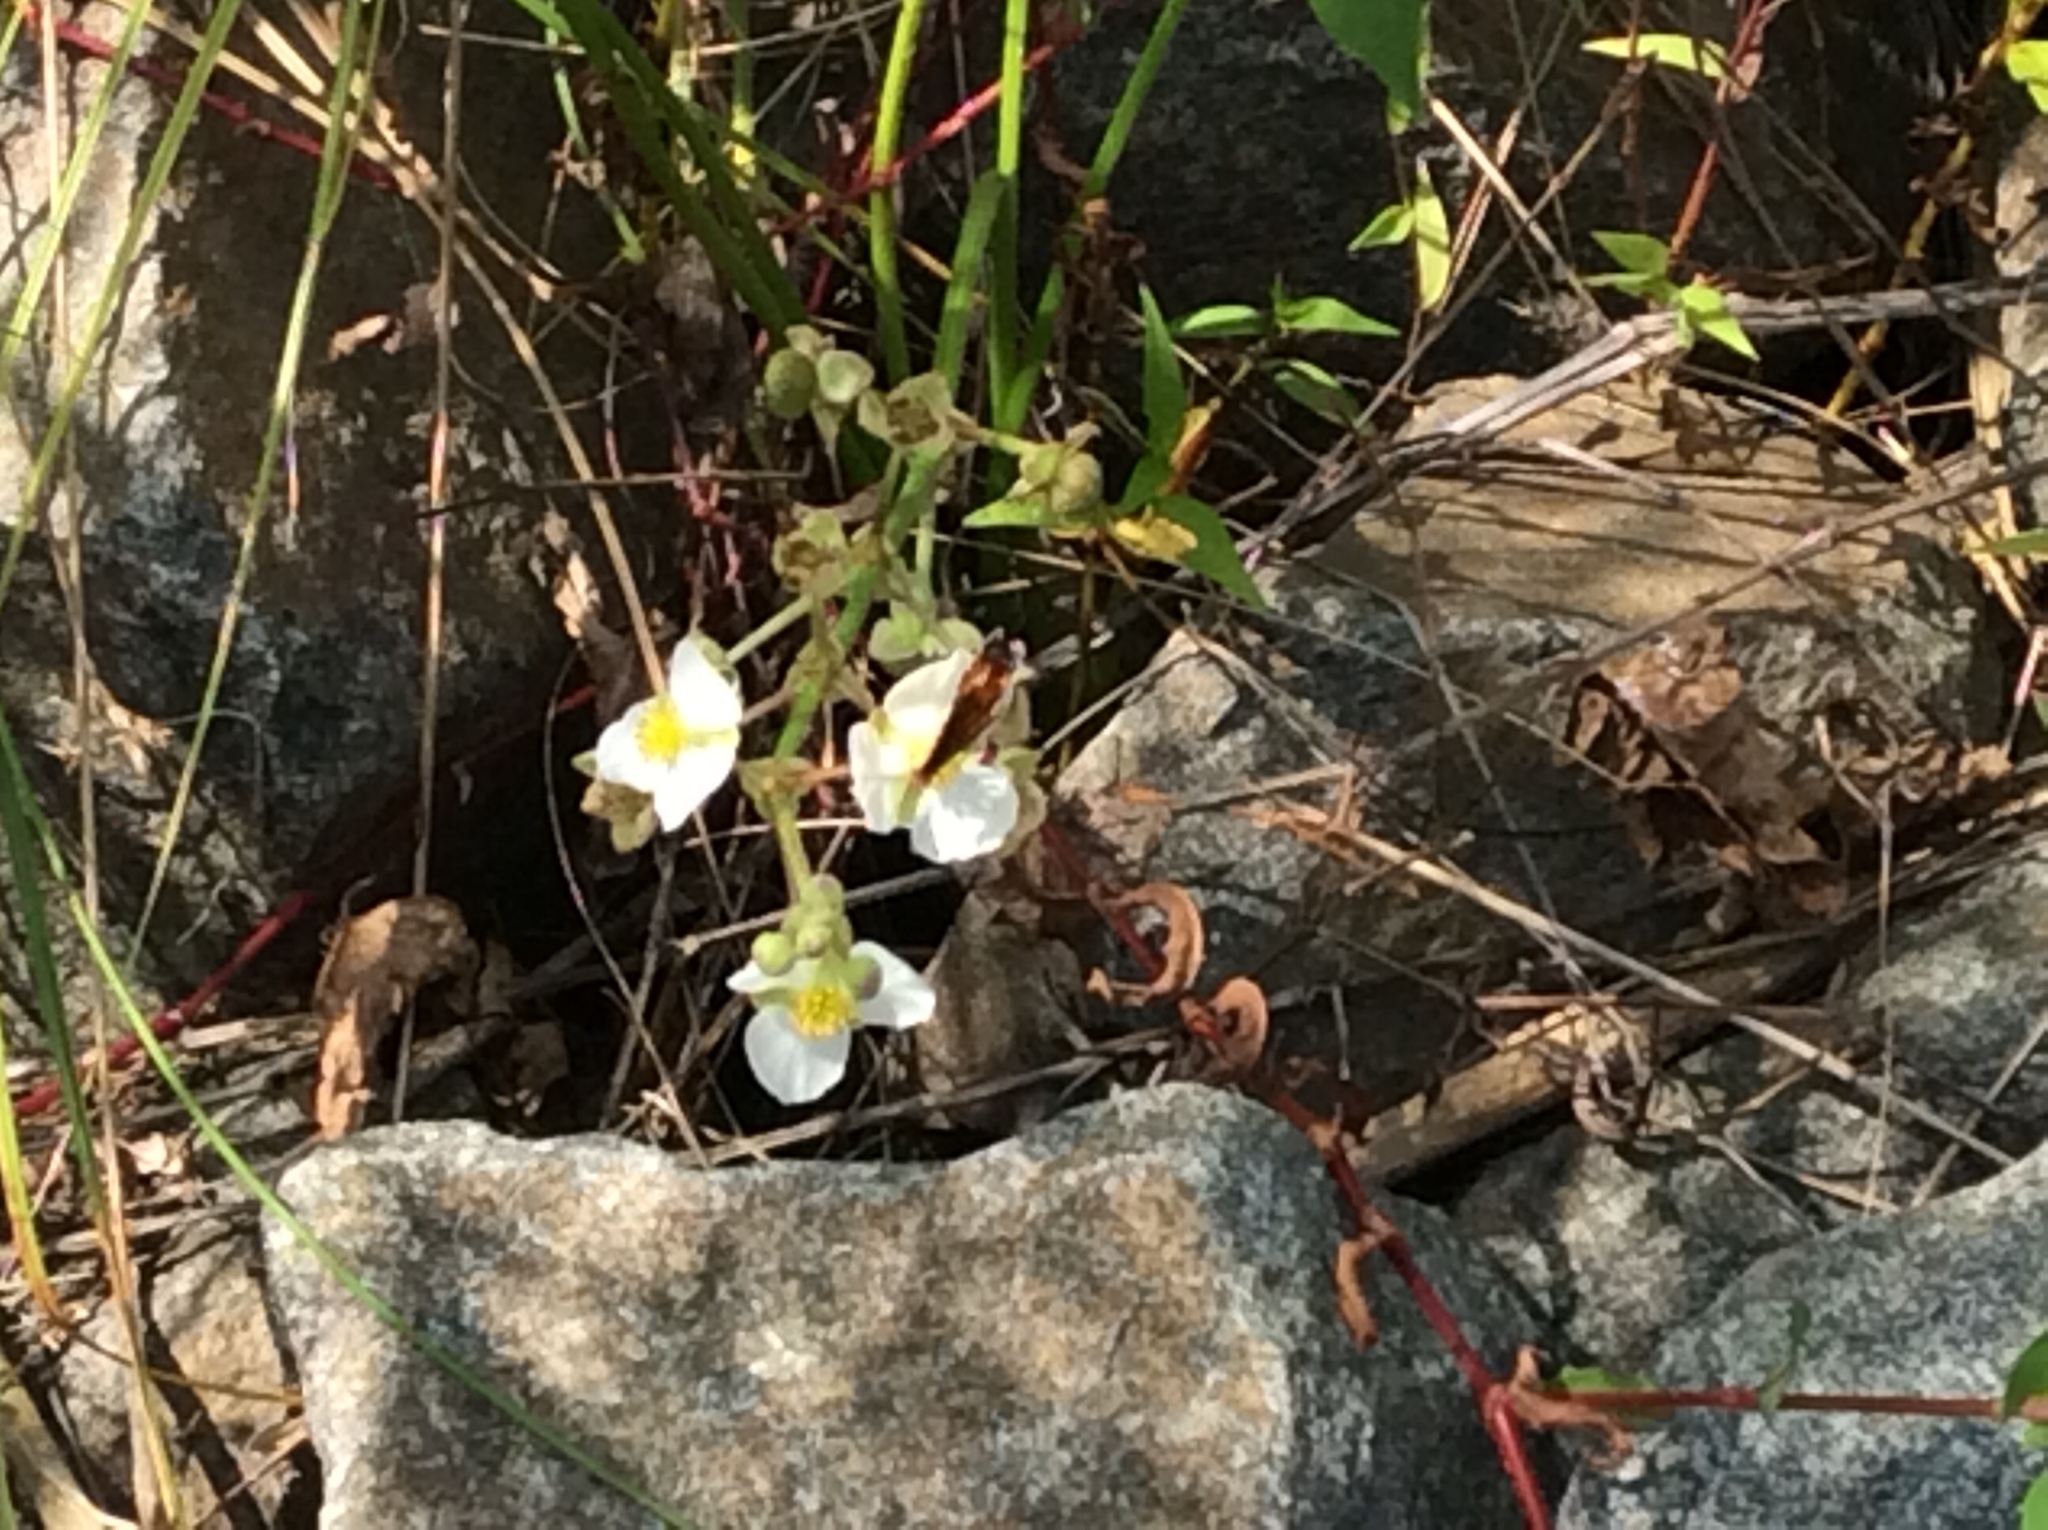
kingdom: Plantae
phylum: Tracheophyta
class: Liliopsida
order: Alismatales
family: Alismataceae
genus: Sagittaria
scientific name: Sagittaria latifolia
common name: Duck-potato
